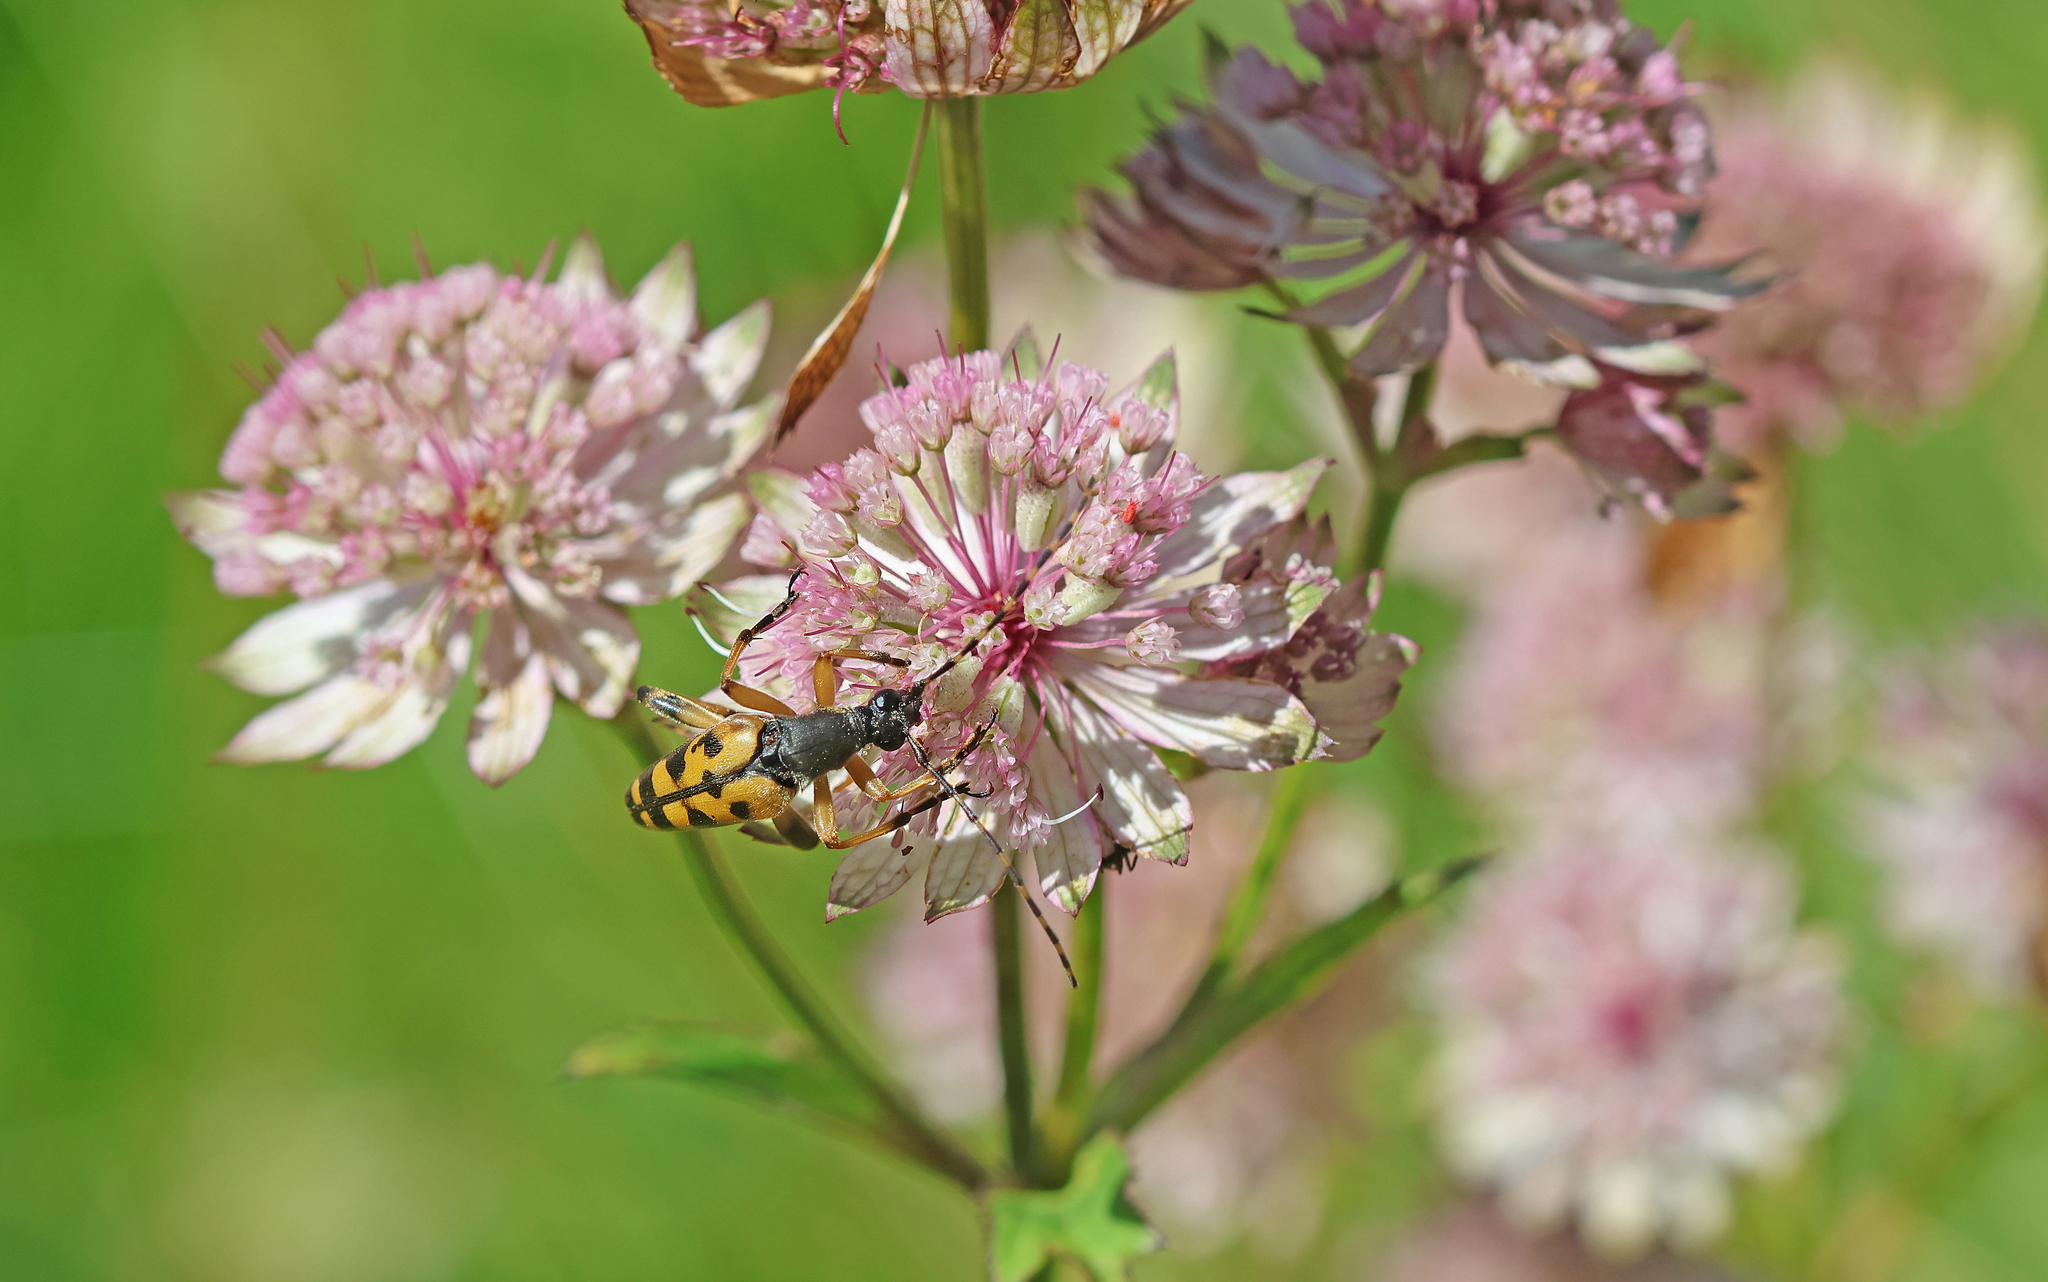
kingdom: Animalia
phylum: Arthropoda
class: Insecta
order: Coleoptera
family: Cerambycidae
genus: Rutpela
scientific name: Rutpela maculata
